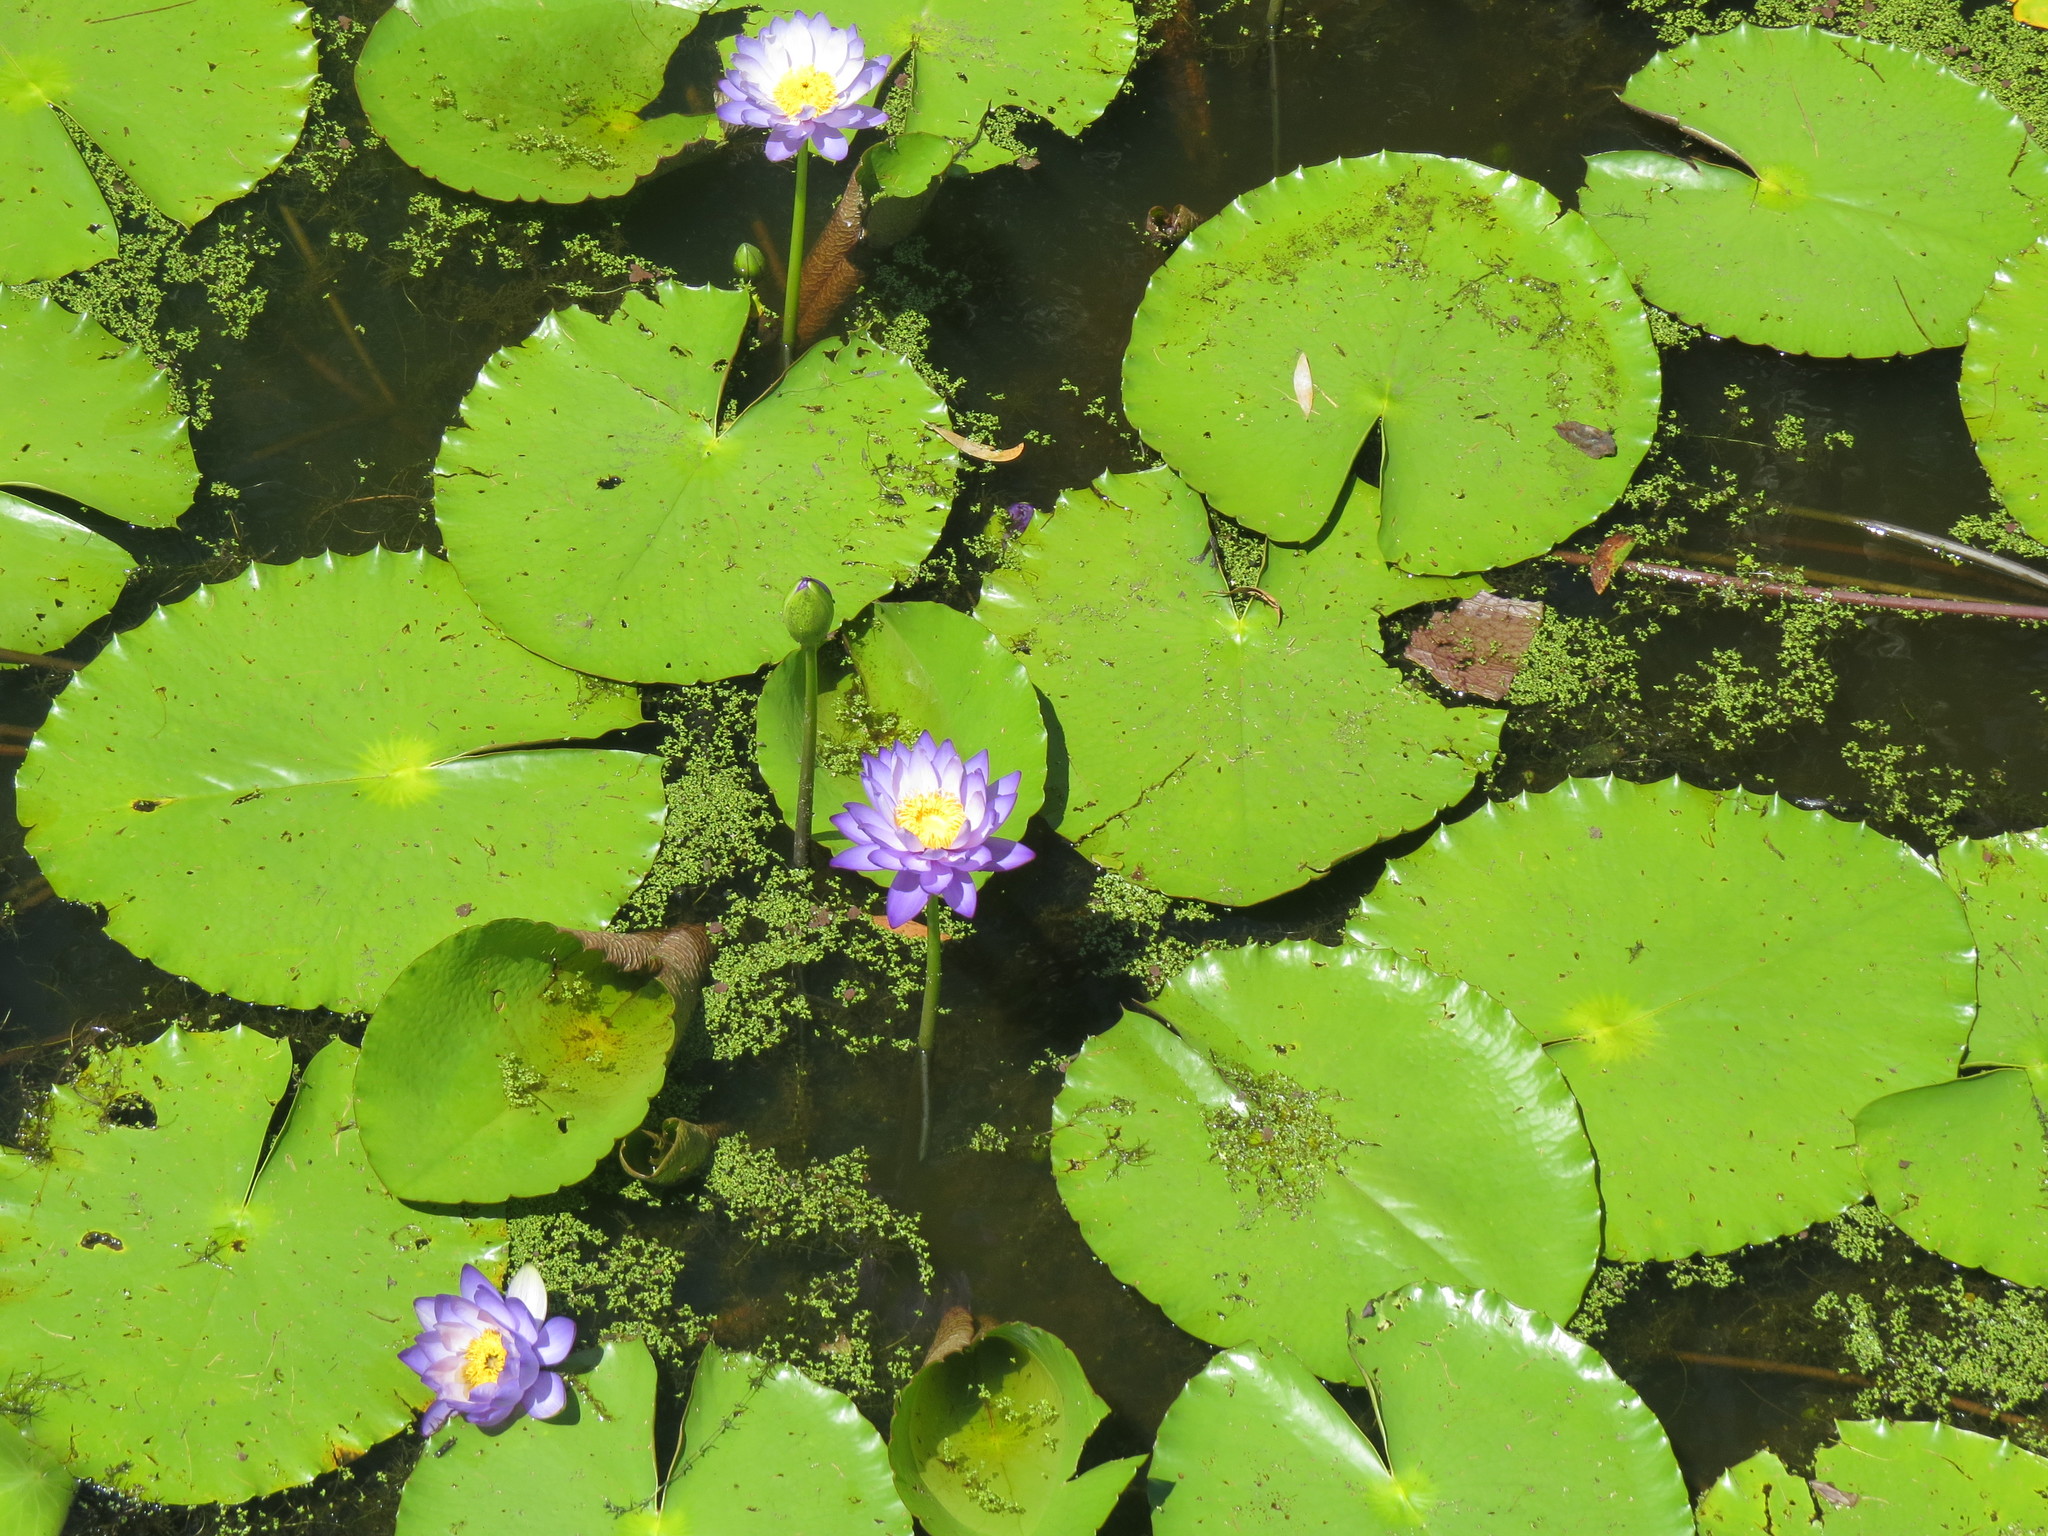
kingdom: Plantae
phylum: Tracheophyta
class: Magnoliopsida
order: Nymphaeales
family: Nymphaeaceae
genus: Nymphaea
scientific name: Nymphaea gigantea
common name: Giant water-lily
